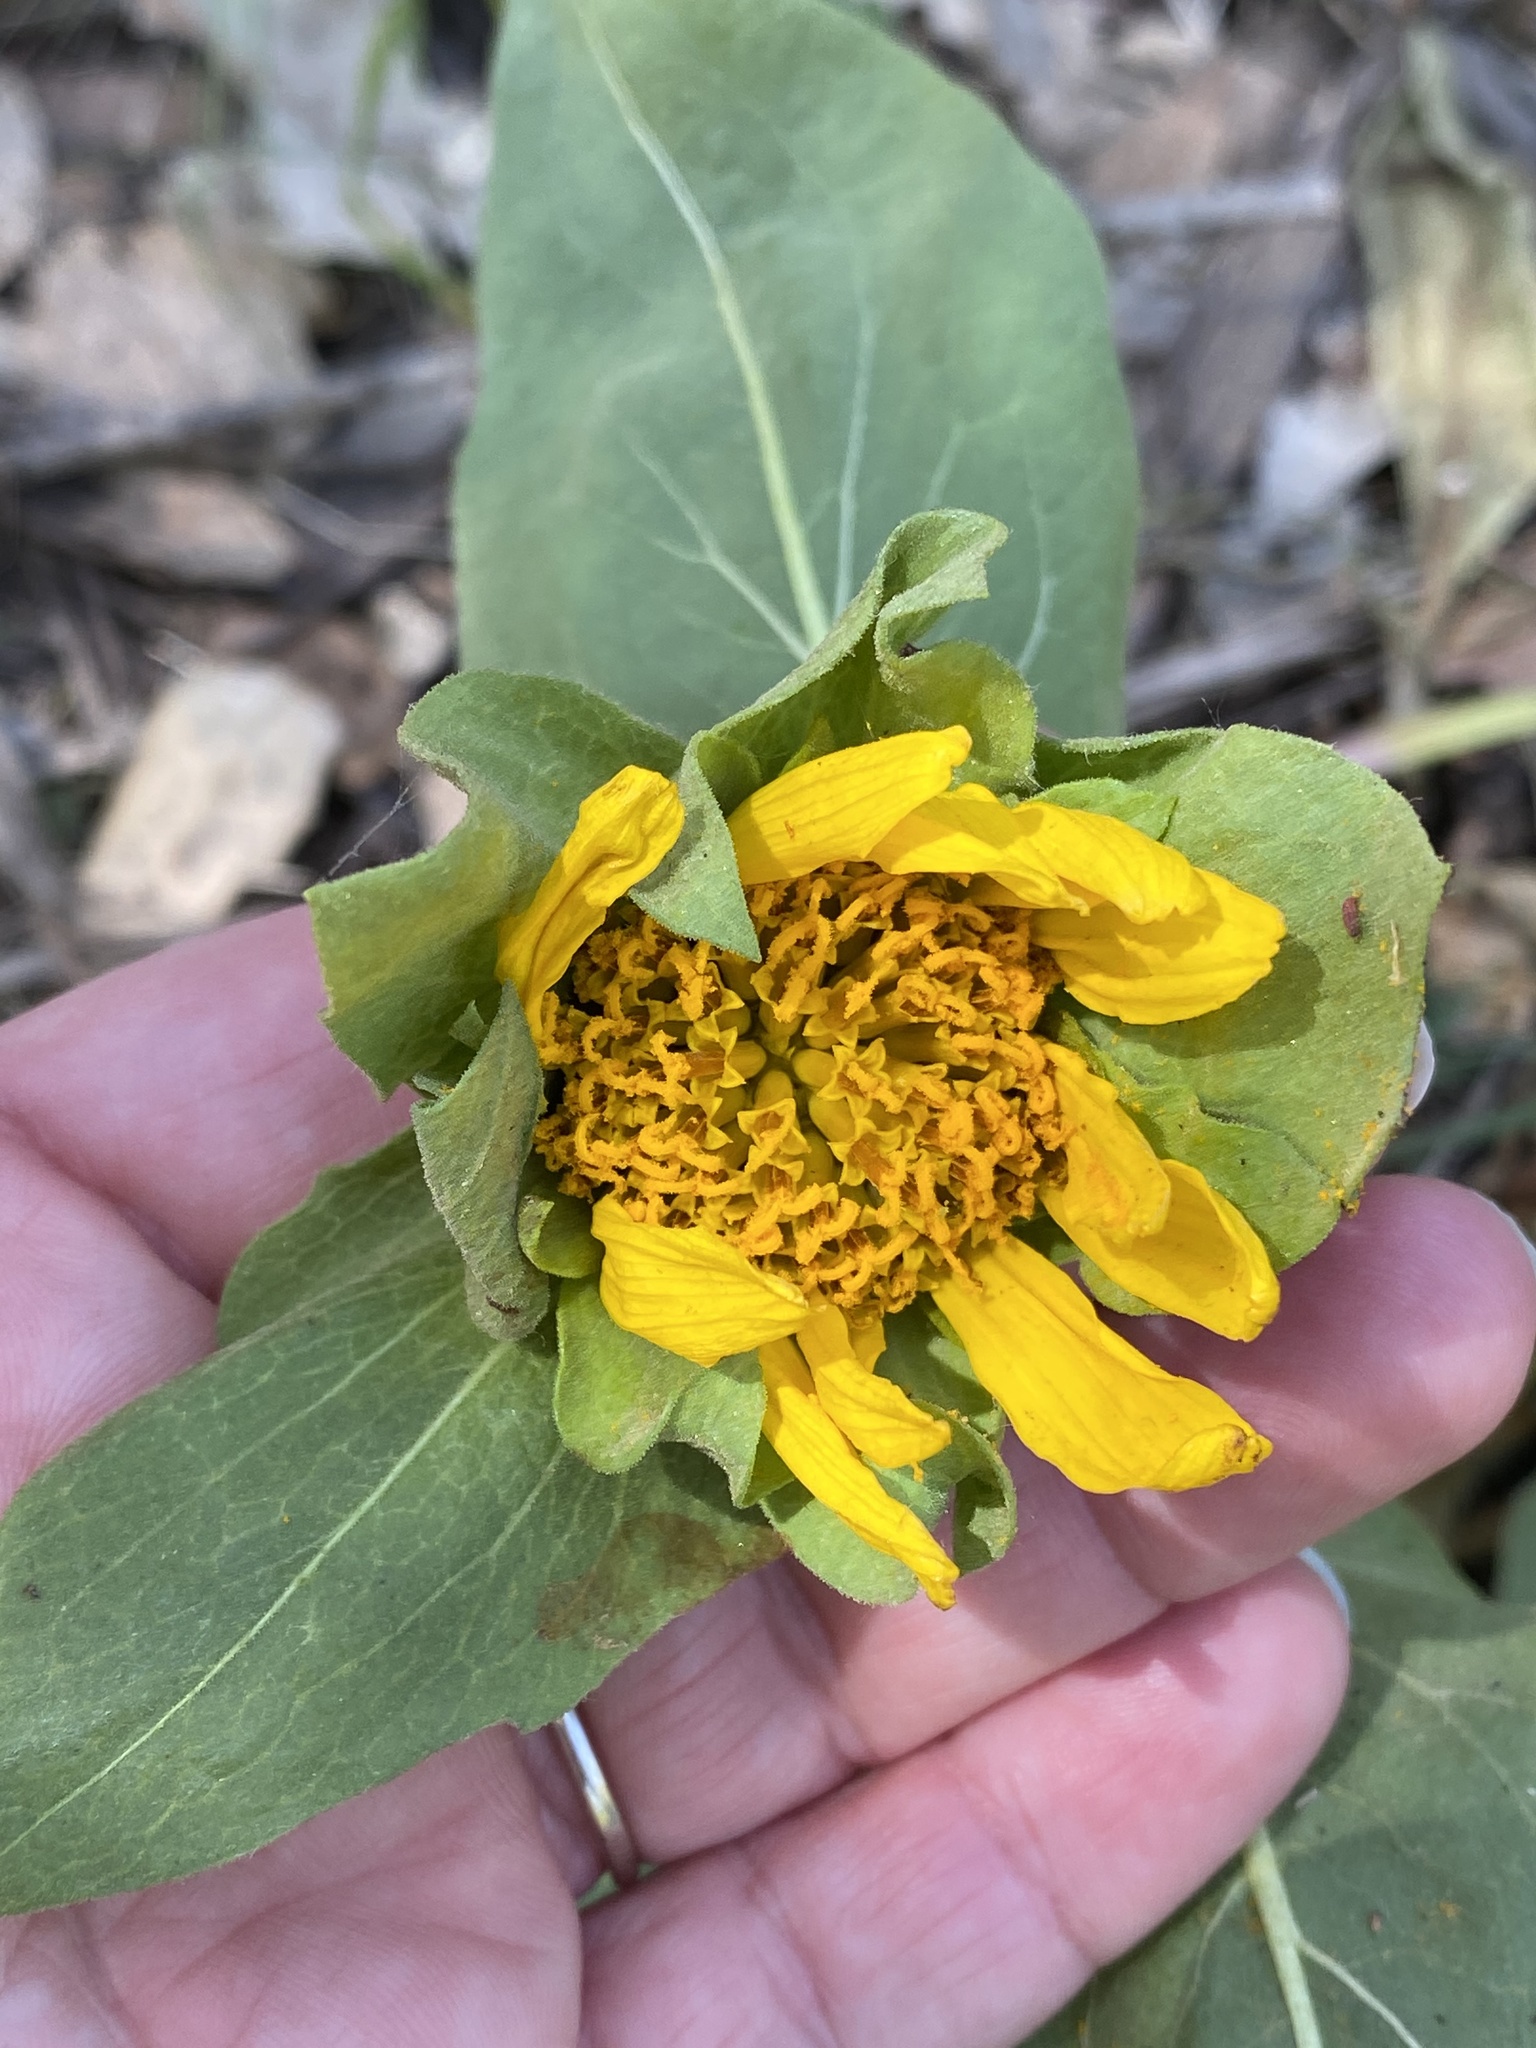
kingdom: Plantae
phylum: Tracheophyta
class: Magnoliopsida
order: Asterales
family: Asteraceae
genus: Wyethia
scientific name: Wyethia glabra
